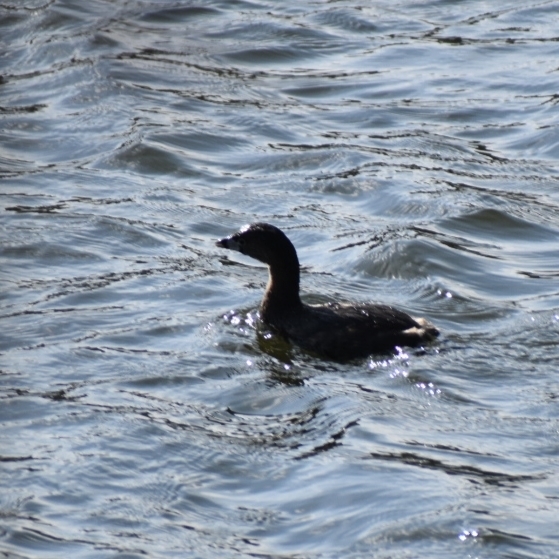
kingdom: Animalia
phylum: Chordata
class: Aves
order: Podicipediformes
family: Podicipedidae
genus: Podilymbus
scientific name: Podilymbus podiceps
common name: Pied-billed grebe
